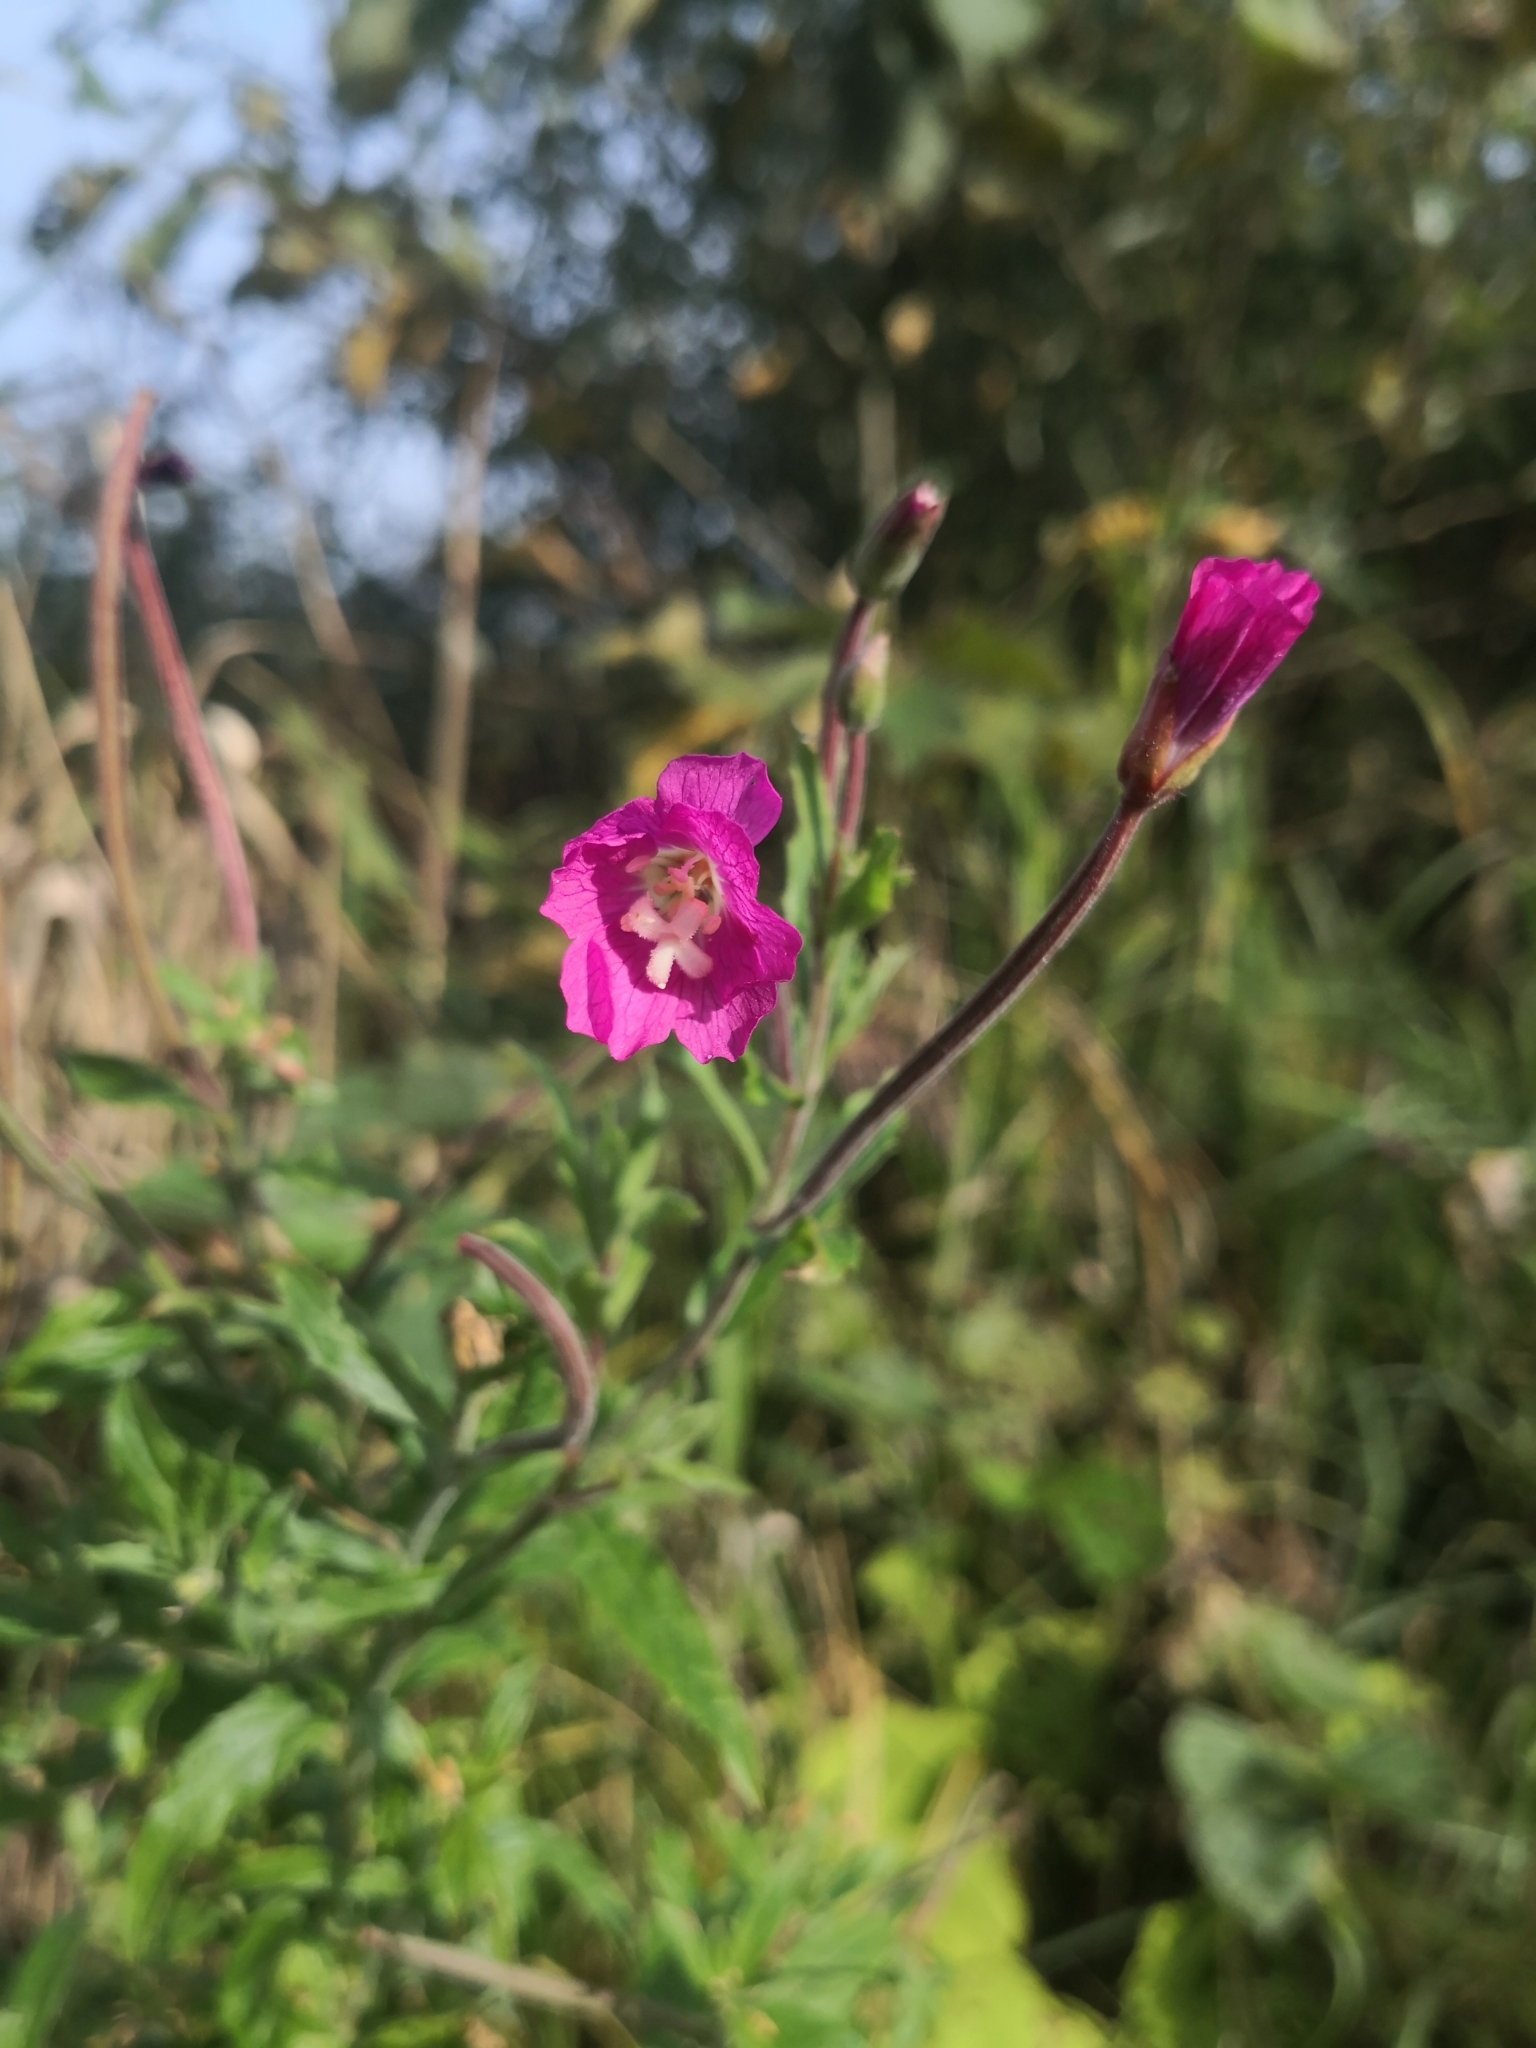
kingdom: Plantae
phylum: Tracheophyta
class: Magnoliopsida
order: Myrtales
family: Onagraceae
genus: Epilobium
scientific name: Epilobium hirsutum
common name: Great willowherb
